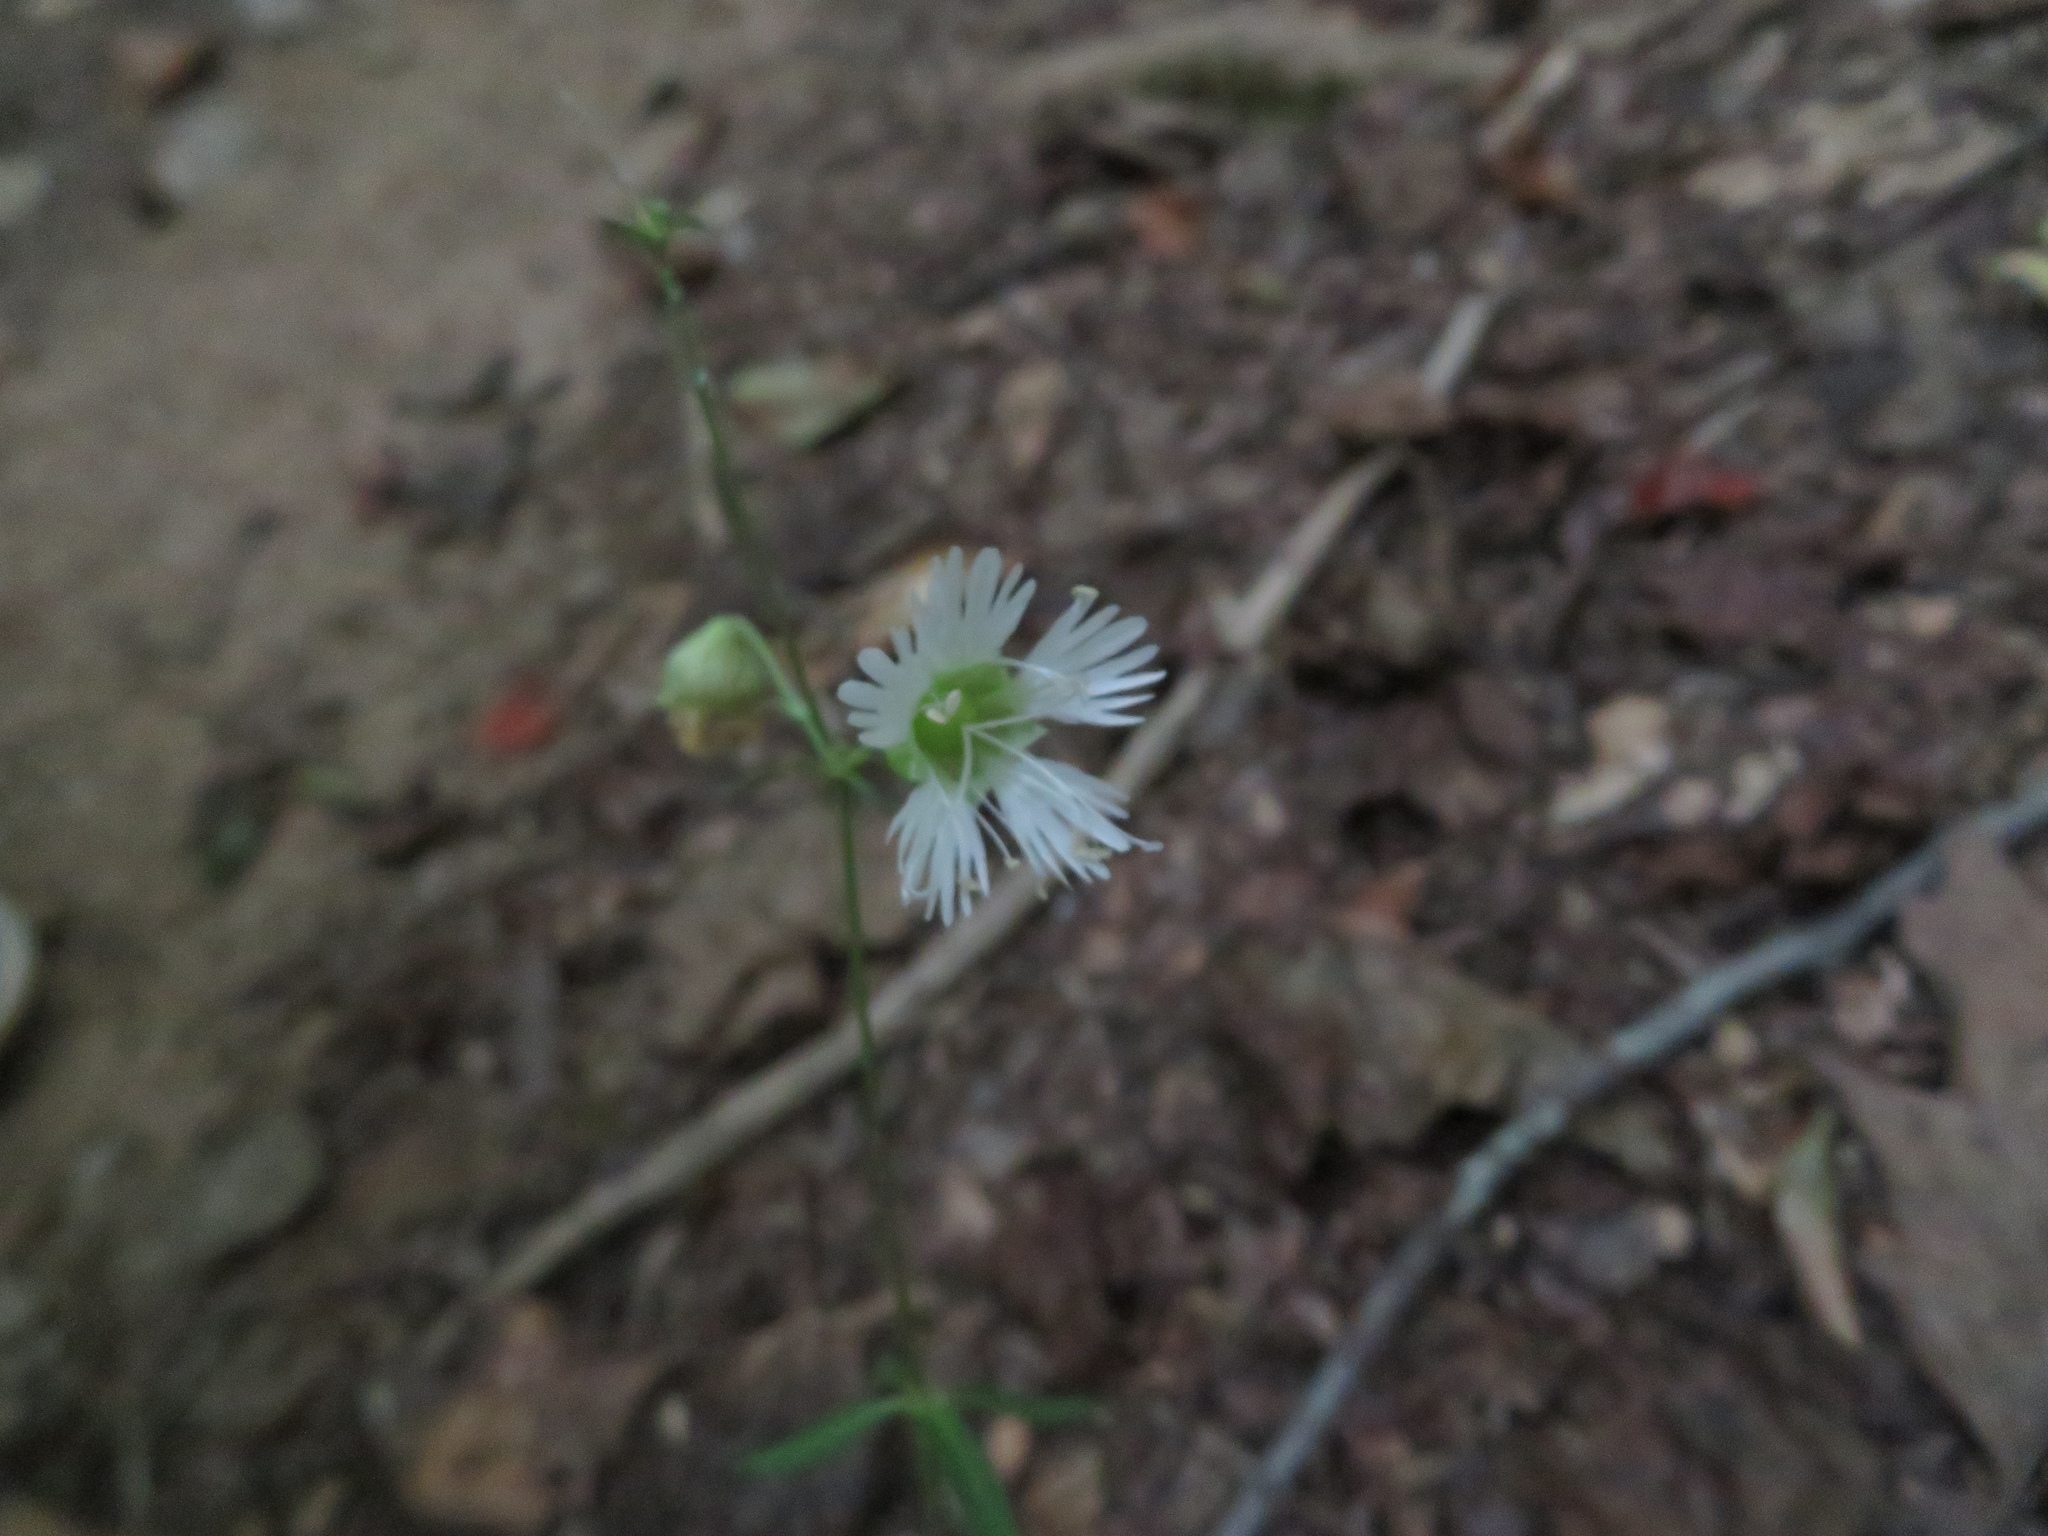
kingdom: Plantae
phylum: Tracheophyta
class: Magnoliopsida
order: Caryophyllales
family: Caryophyllaceae
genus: Silene
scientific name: Silene stellata
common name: Starry campion
